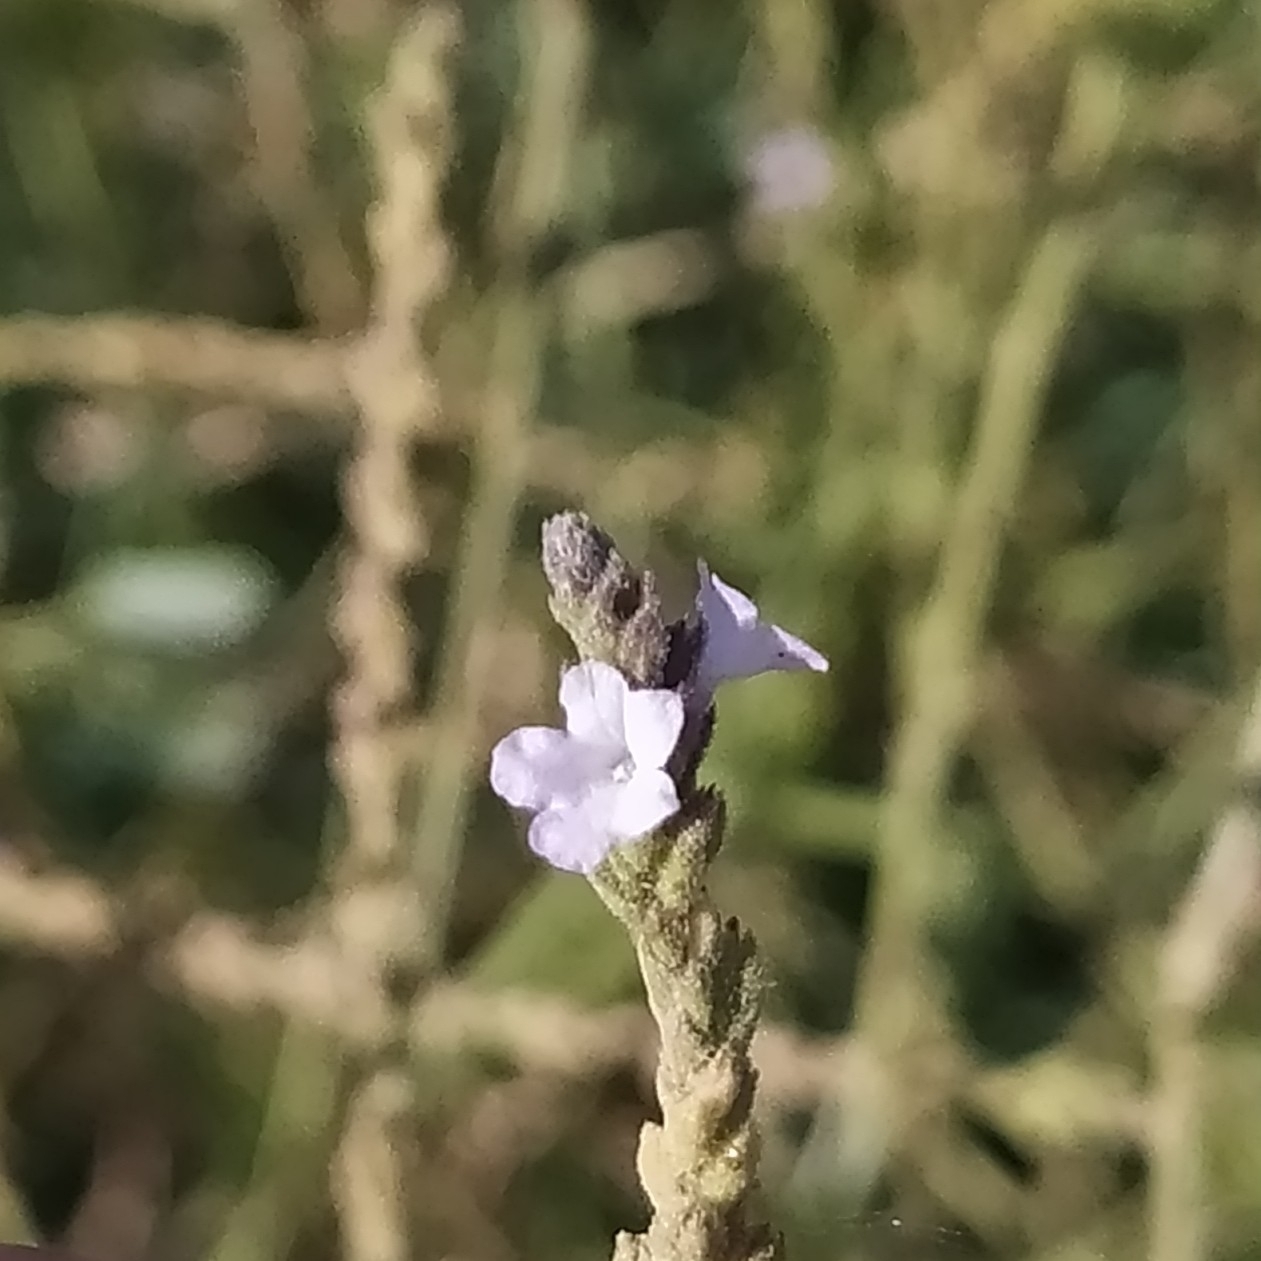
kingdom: Plantae
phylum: Tracheophyta
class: Magnoliopsida
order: Lamiales
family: Verbenaceae
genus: Verbena
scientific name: Verbena officinalis
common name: Vervain
